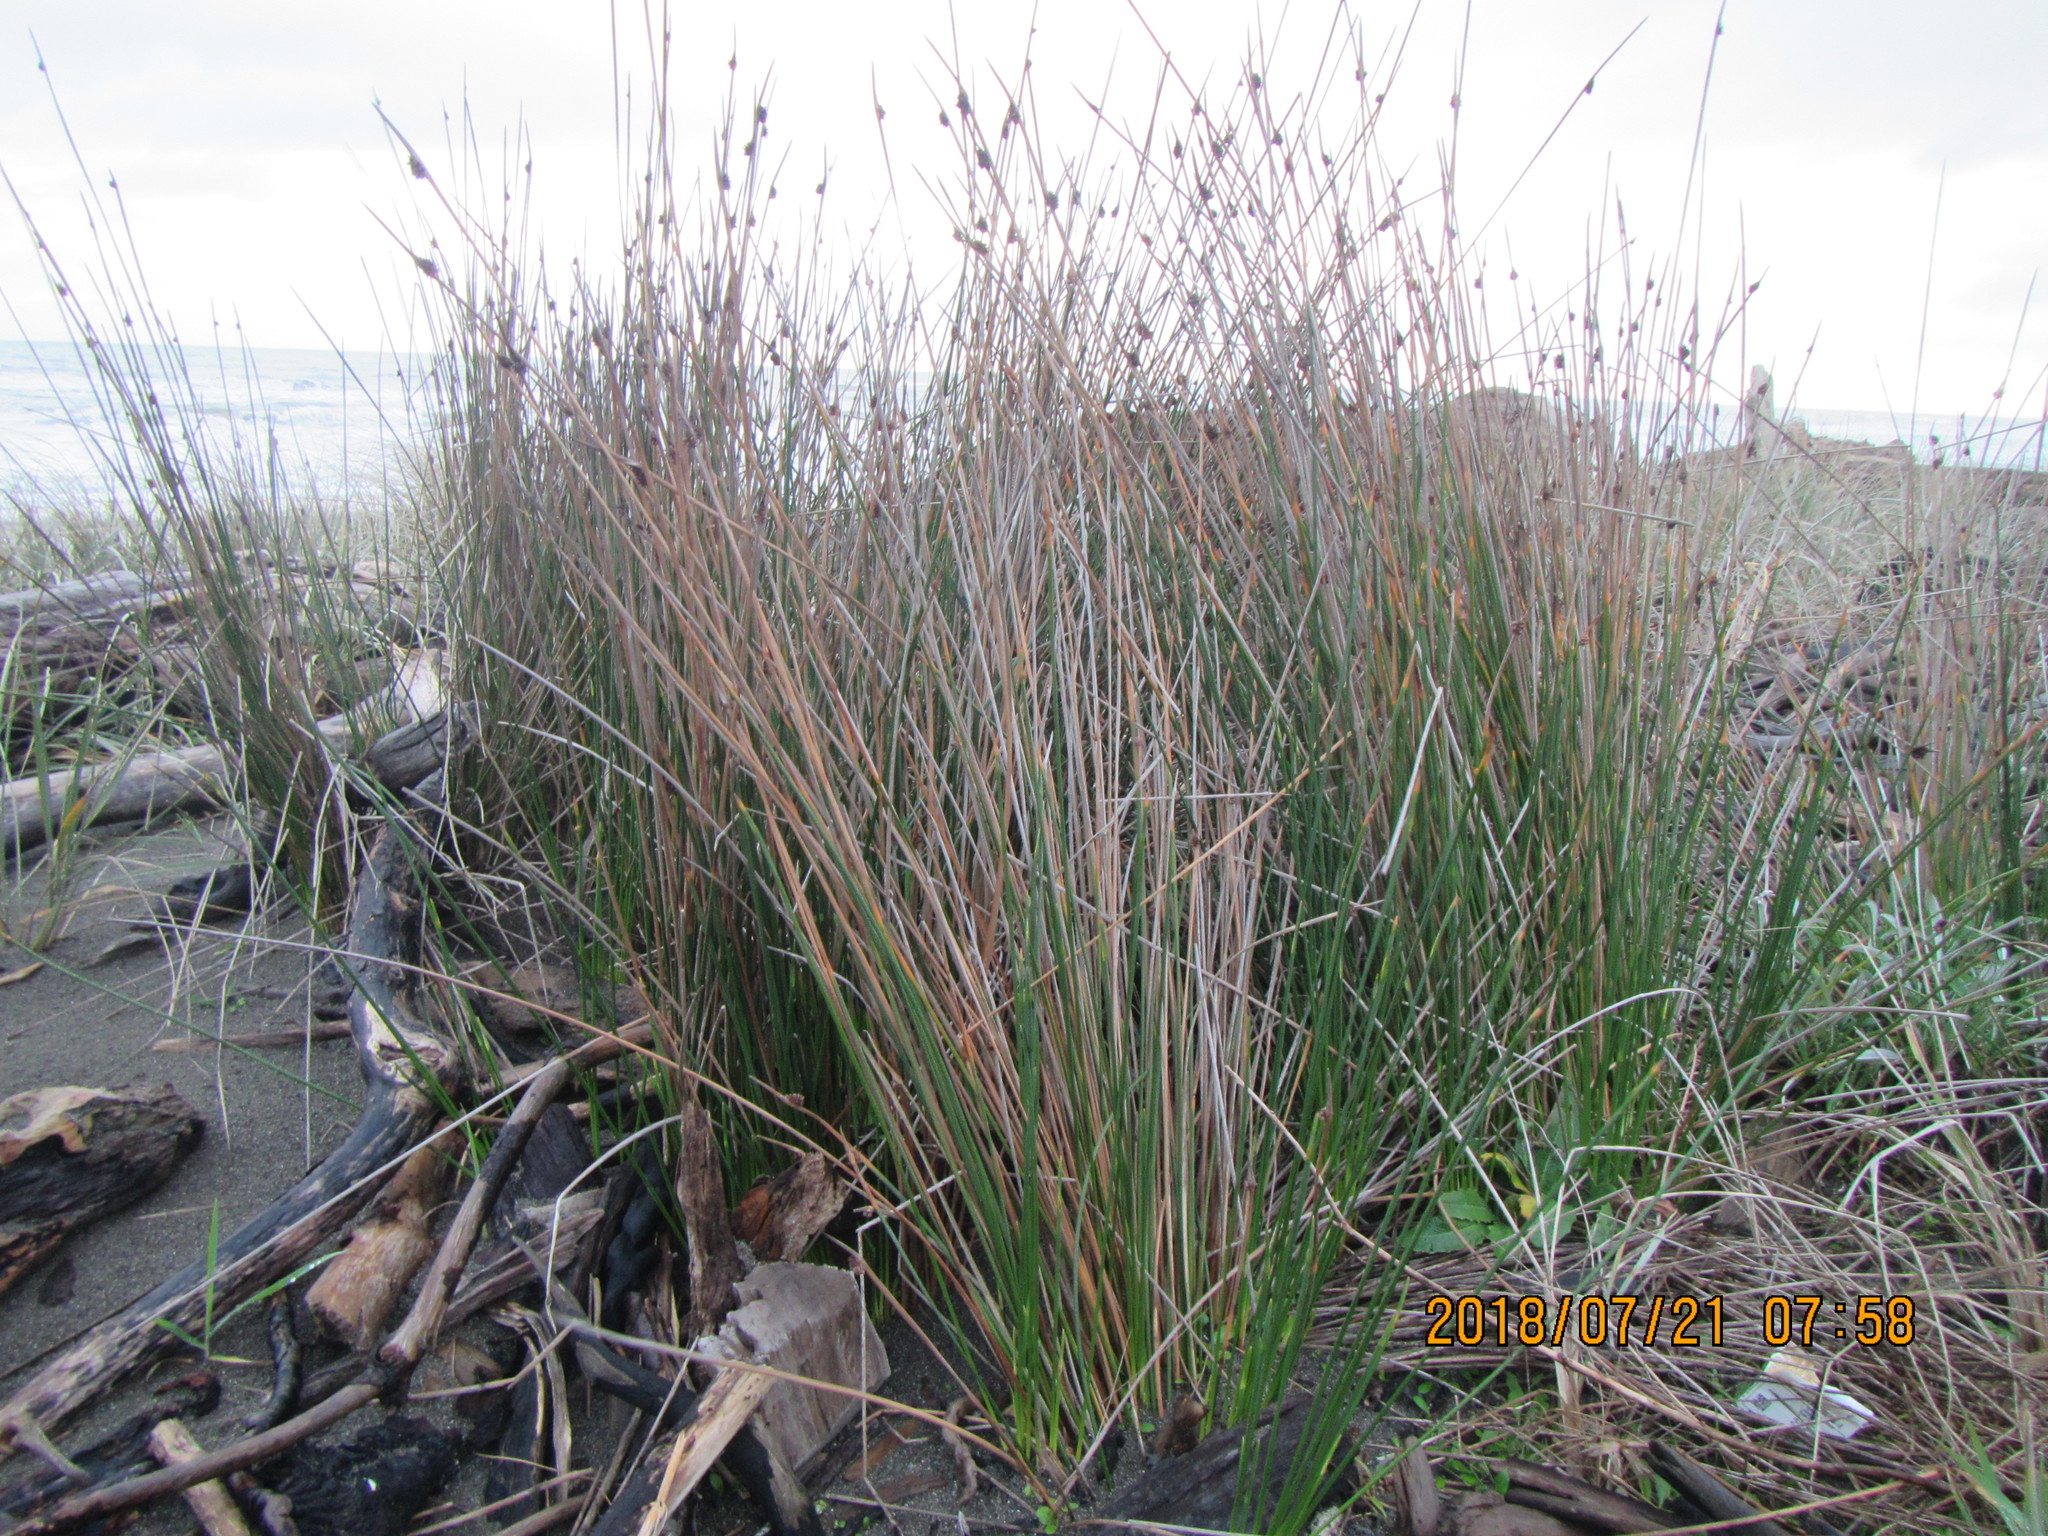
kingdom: Plantae
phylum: Tracheophyta
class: Liliopsida
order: Poales
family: Cyperaceae
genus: Ficinia
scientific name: Ficinia nodosa
